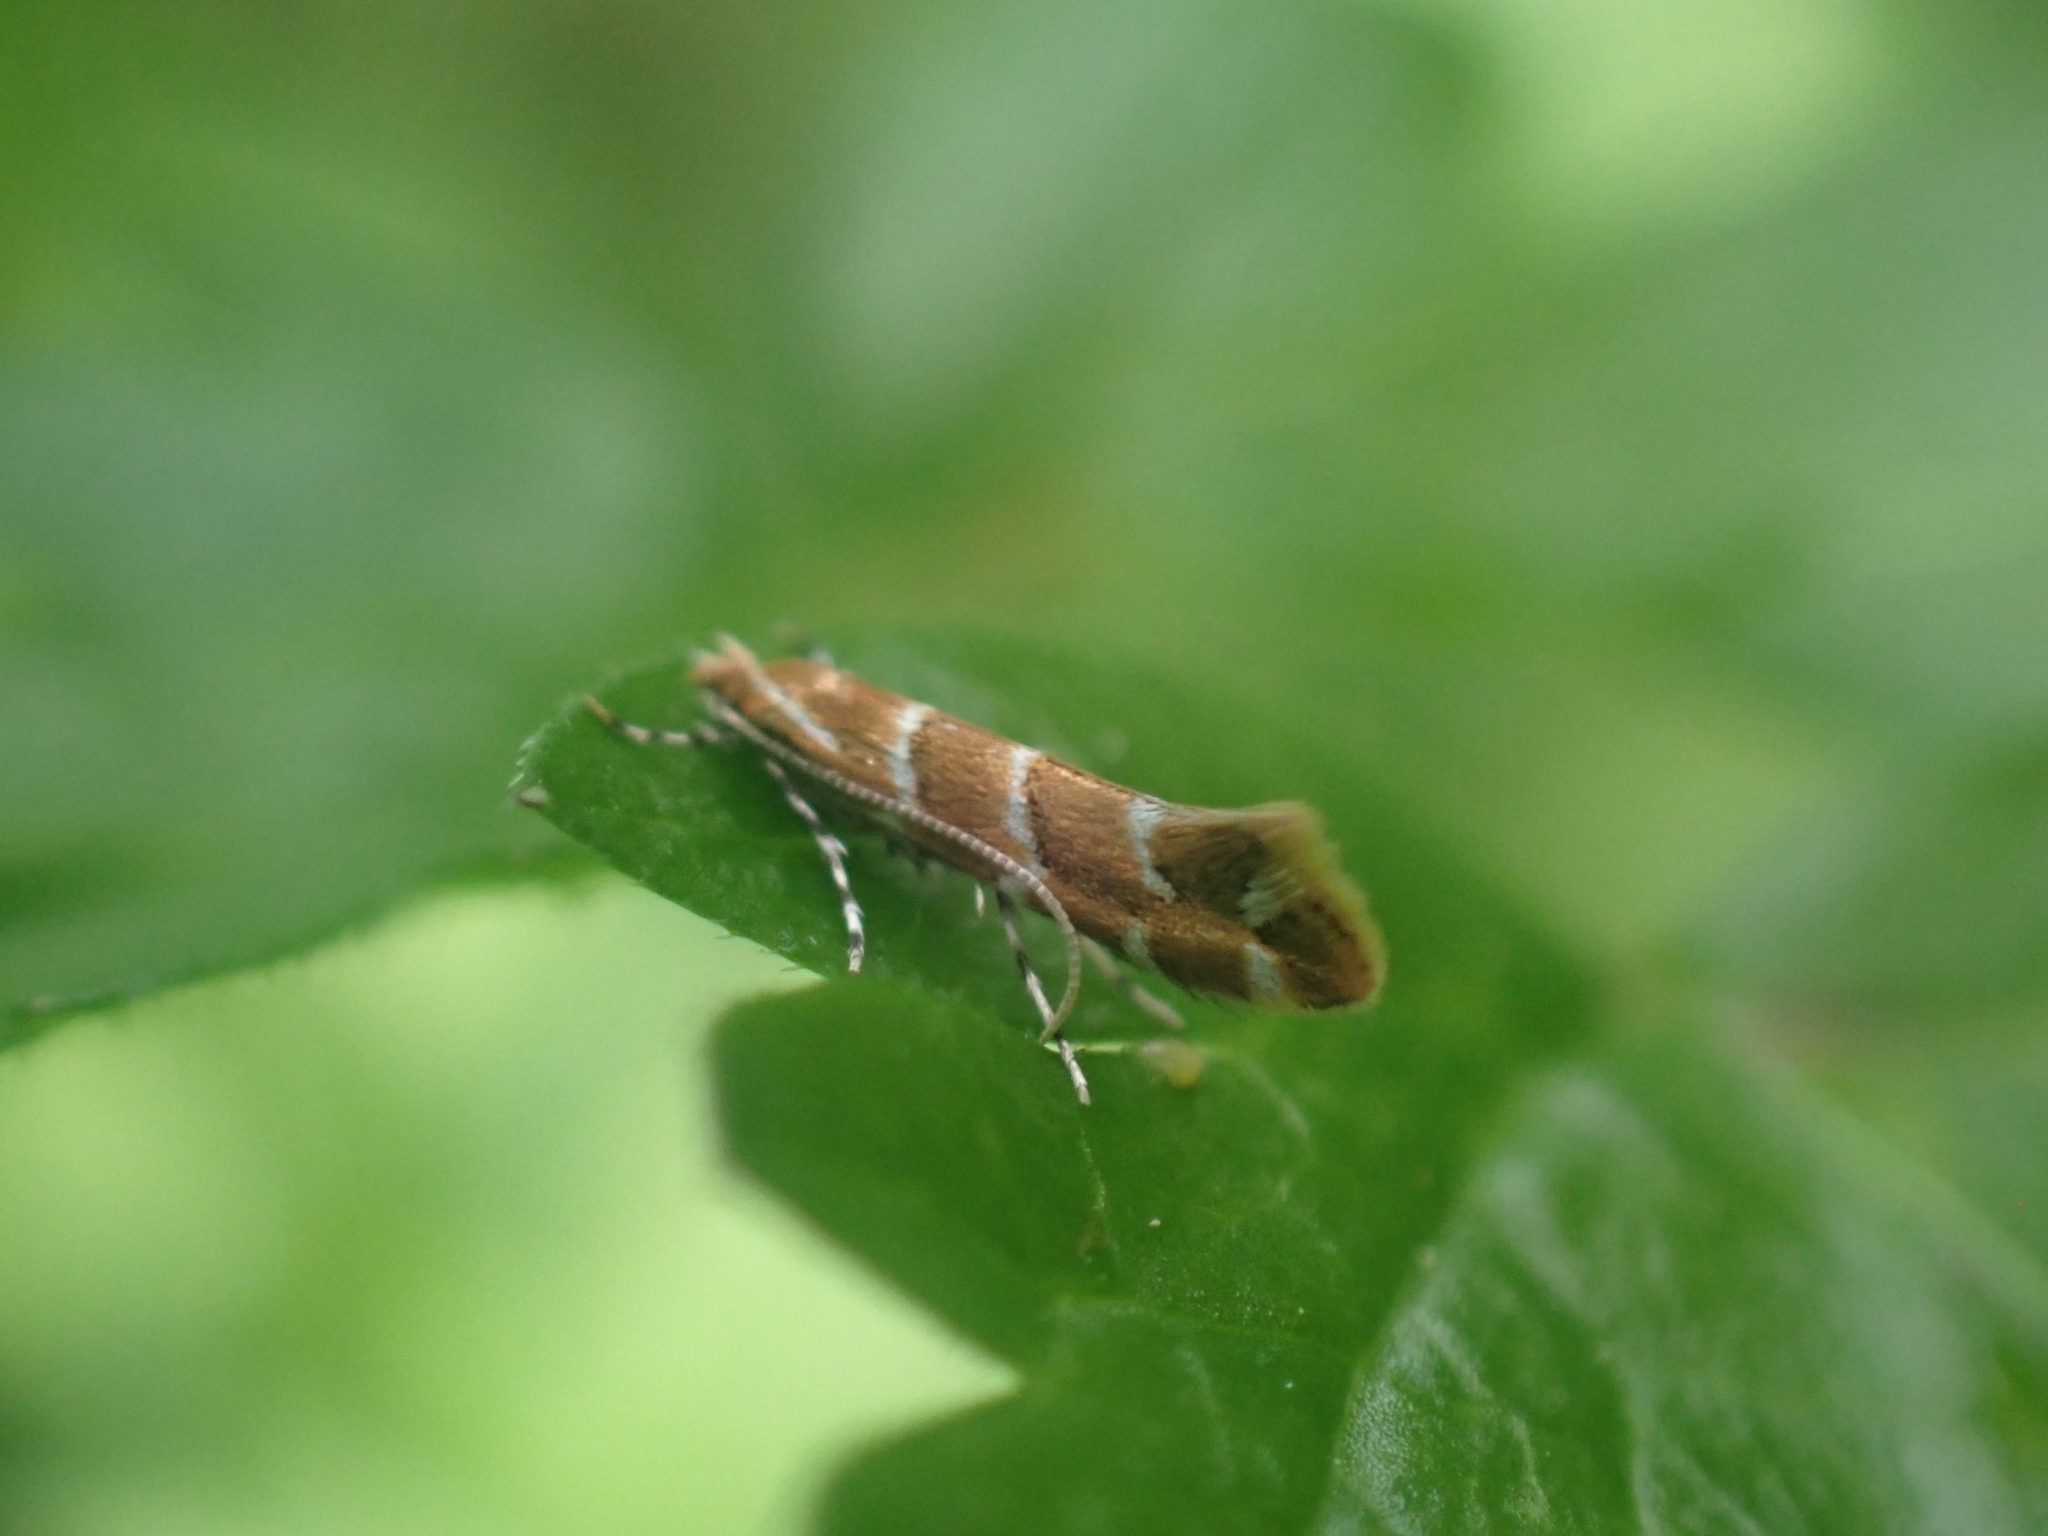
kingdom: Animalia
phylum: Arthropoda
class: Insecta
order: Lepidoptera
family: Gracillariidae
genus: Cameraria
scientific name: Cameraria ohridella
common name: Horse-chestnut leaf-miner
